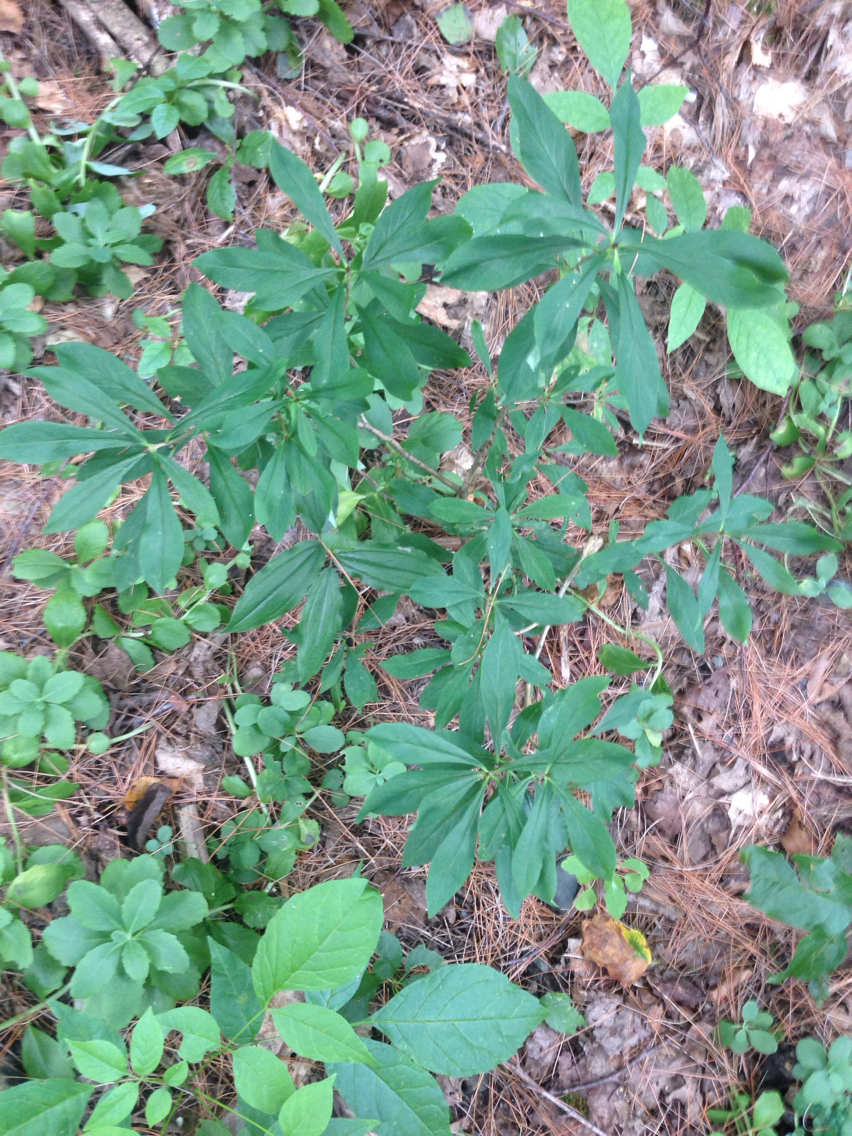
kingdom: Plantae
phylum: Tracheophyta
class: Magnoliopsida
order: Malvales
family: Thymelaeaceae
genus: Daphne
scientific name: Daphne mezereum
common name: Mezereon
